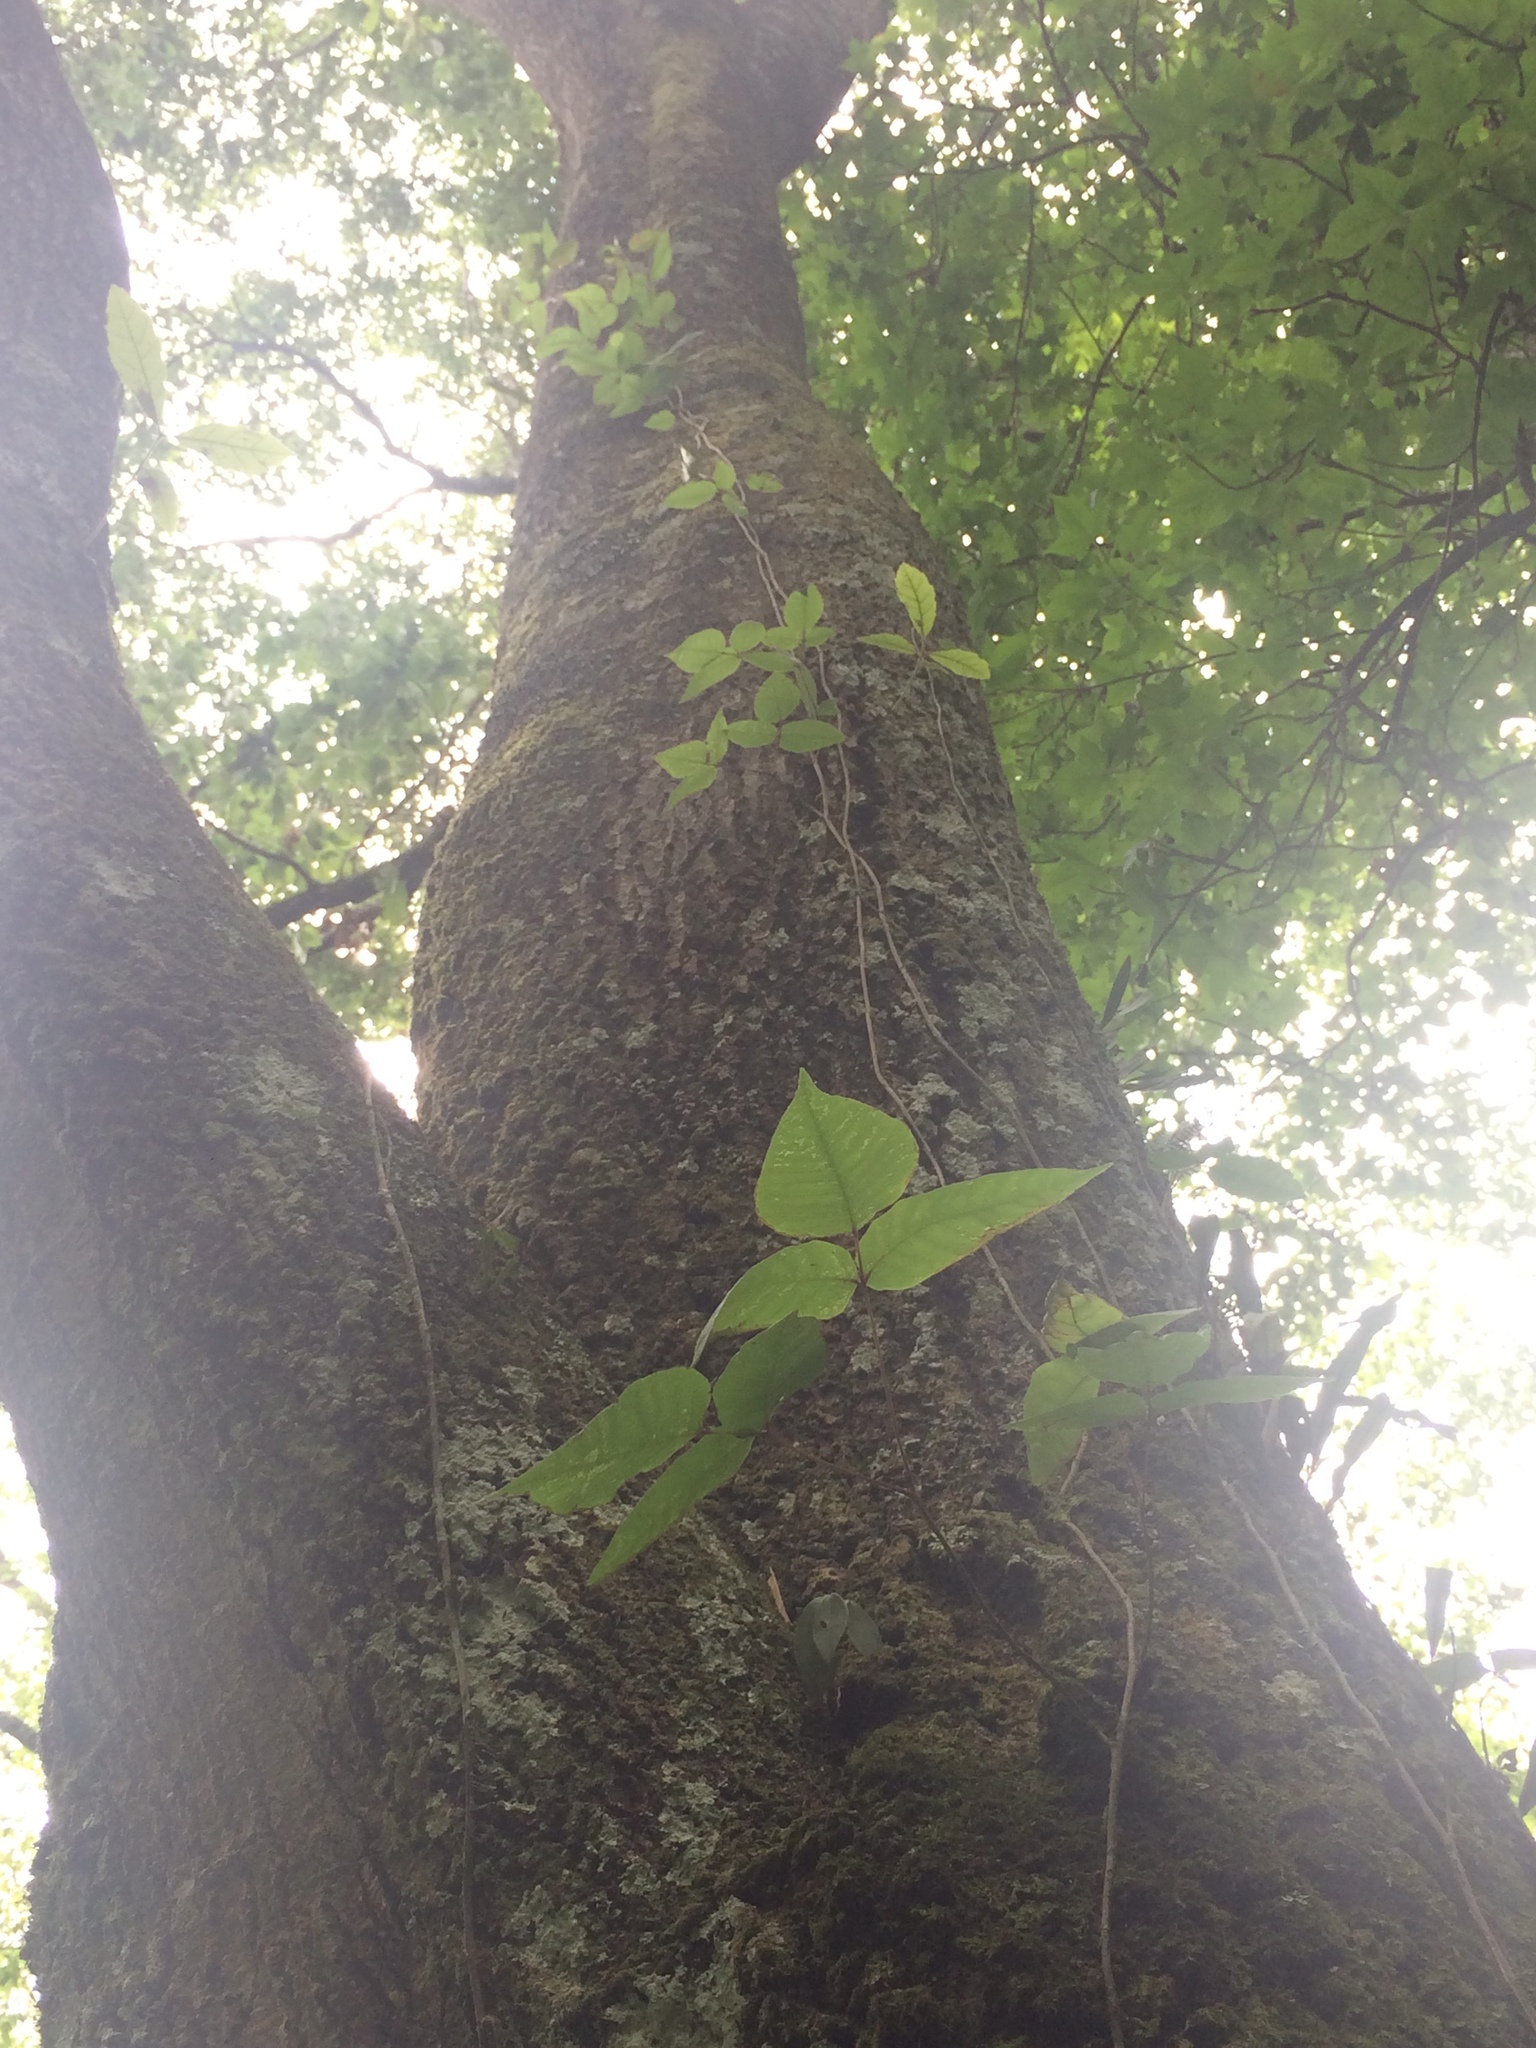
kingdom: Plantae
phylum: Tracheophyta
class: Magnoliopsida
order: Sapindales
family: Anacardiaceae
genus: Toxicodendron
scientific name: Toxicodendron radicans
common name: Poison ivy
